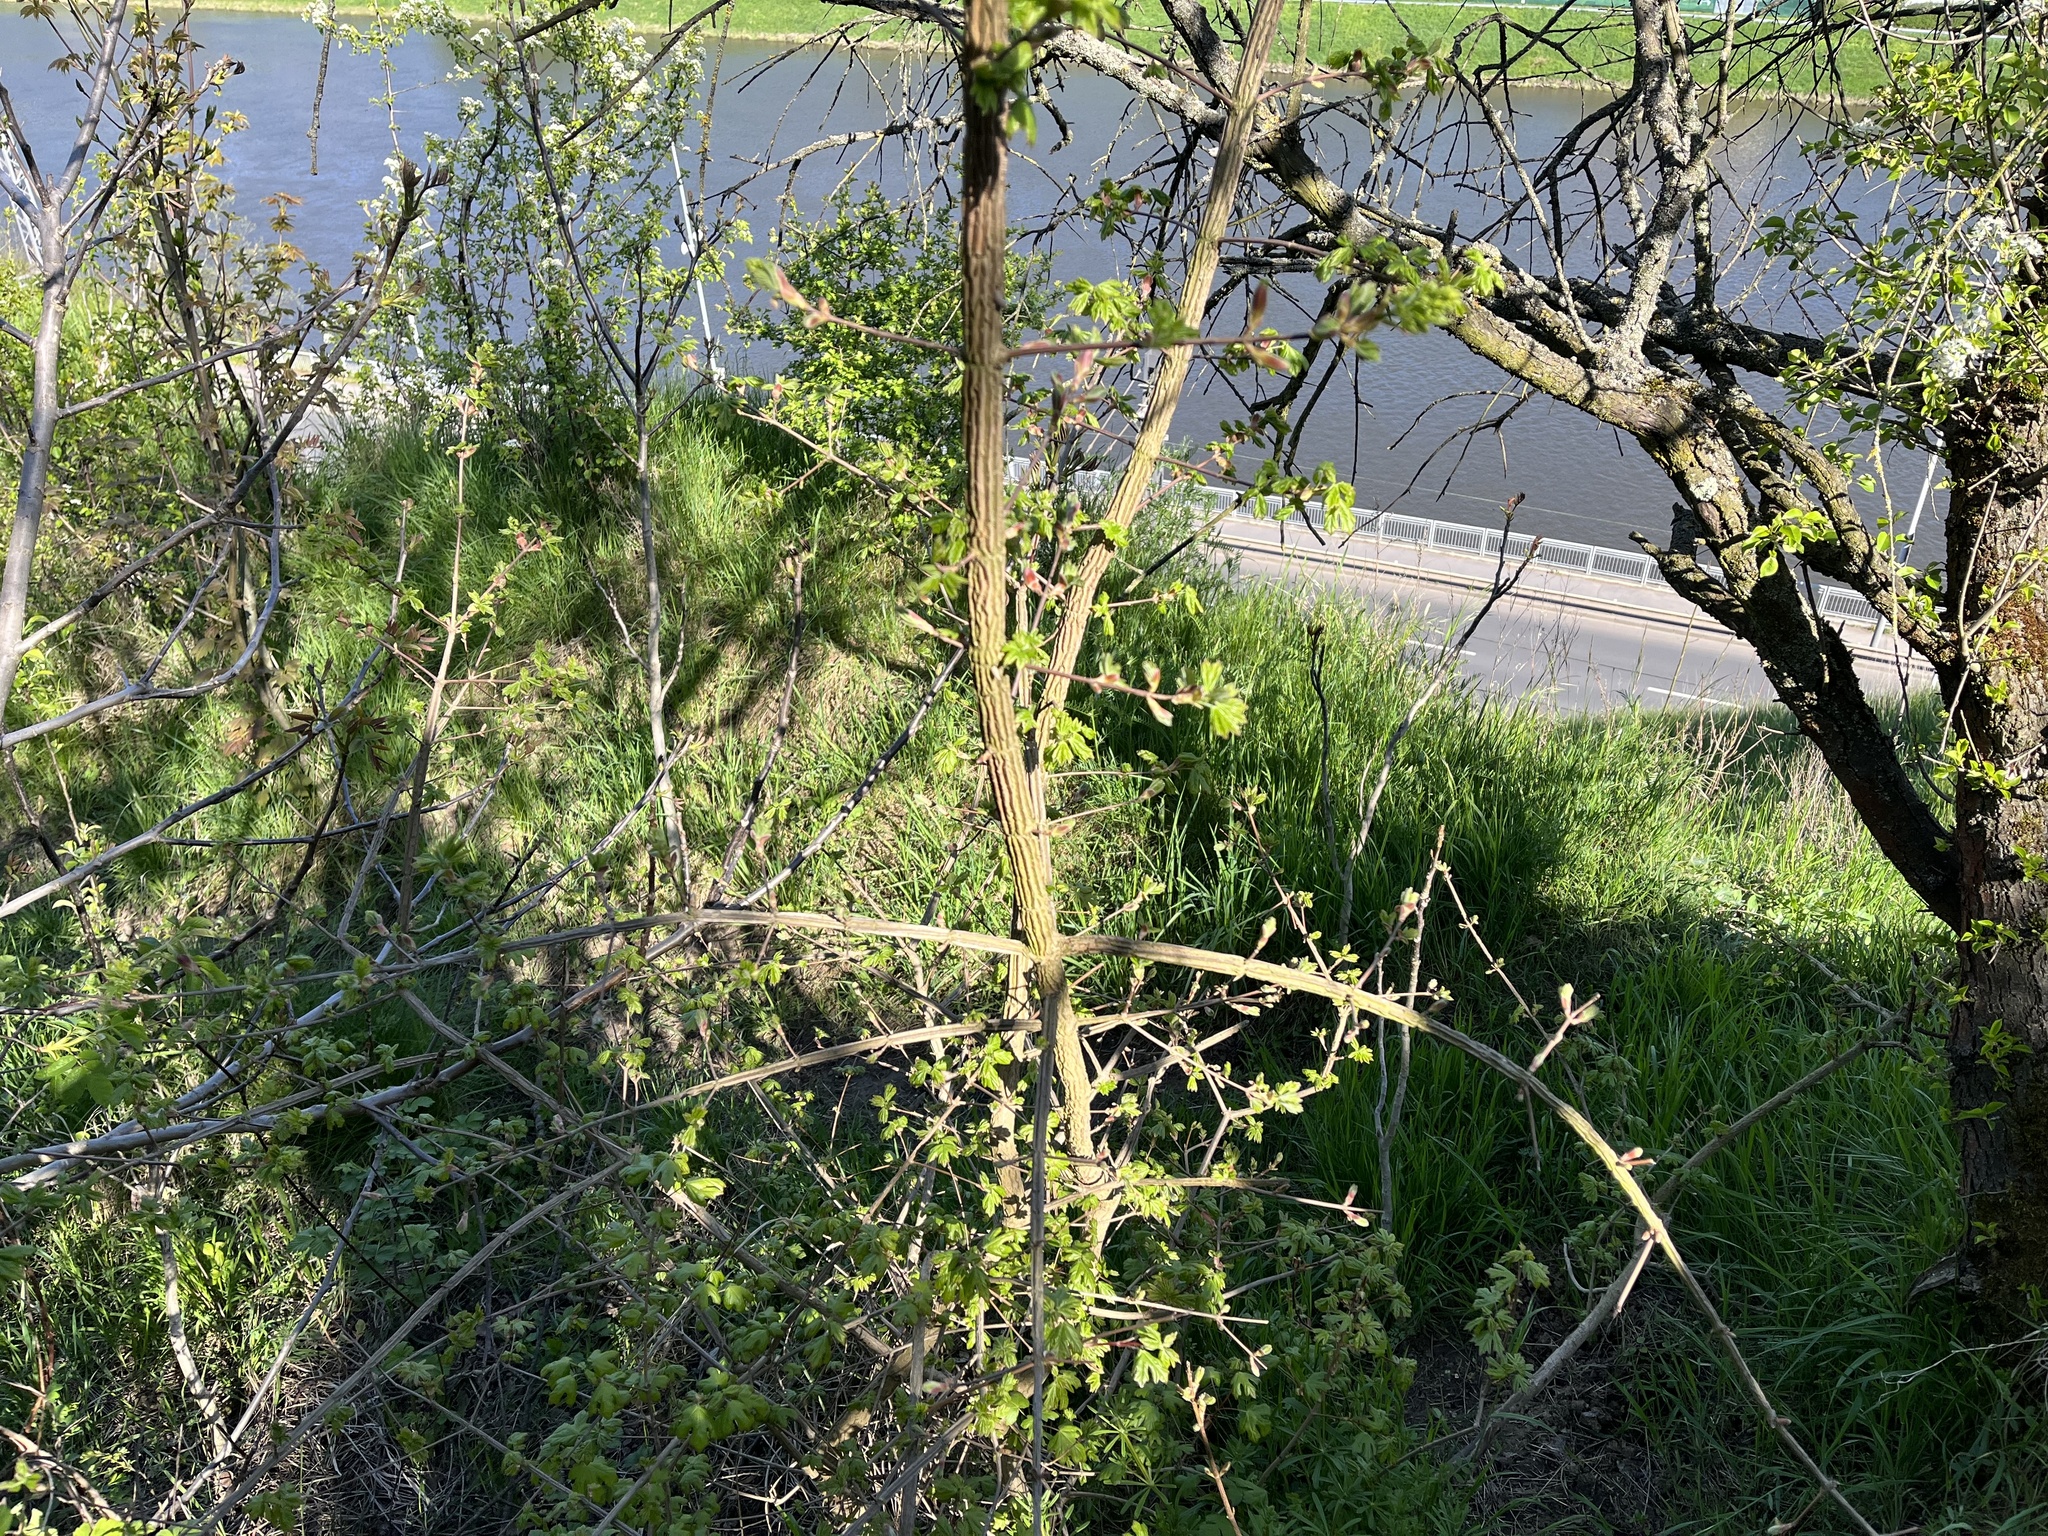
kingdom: Plantae
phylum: Tracheophyta
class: Magnoliopsida
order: Sapindales
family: Sapindaceae
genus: Acer
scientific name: Acer campestre
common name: Field maple
